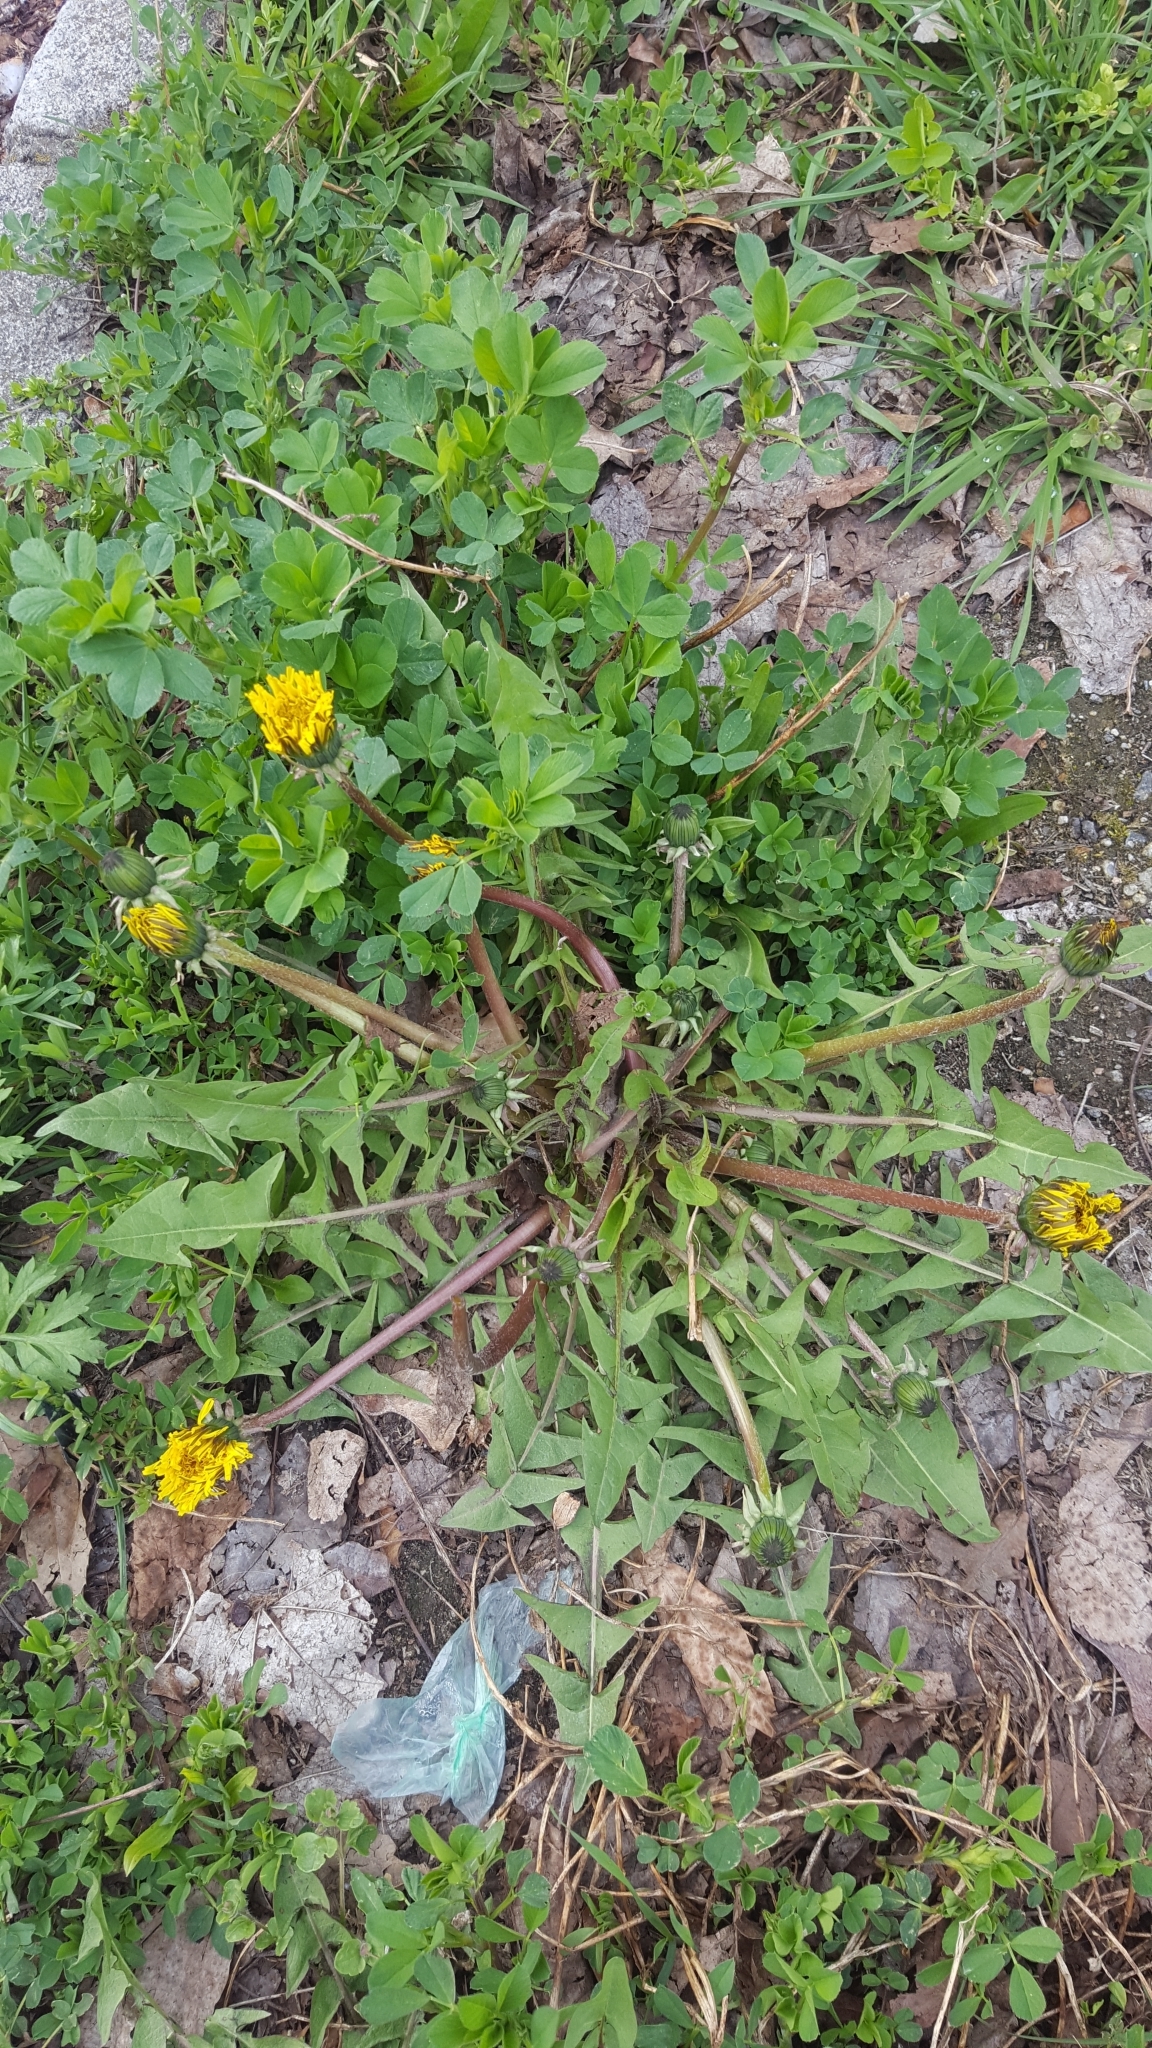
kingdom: Plantae
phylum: Tracheophyta
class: Magnoliopsida
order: Asterales
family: Asteraceae
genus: Taraxacum
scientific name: Taraxacum
